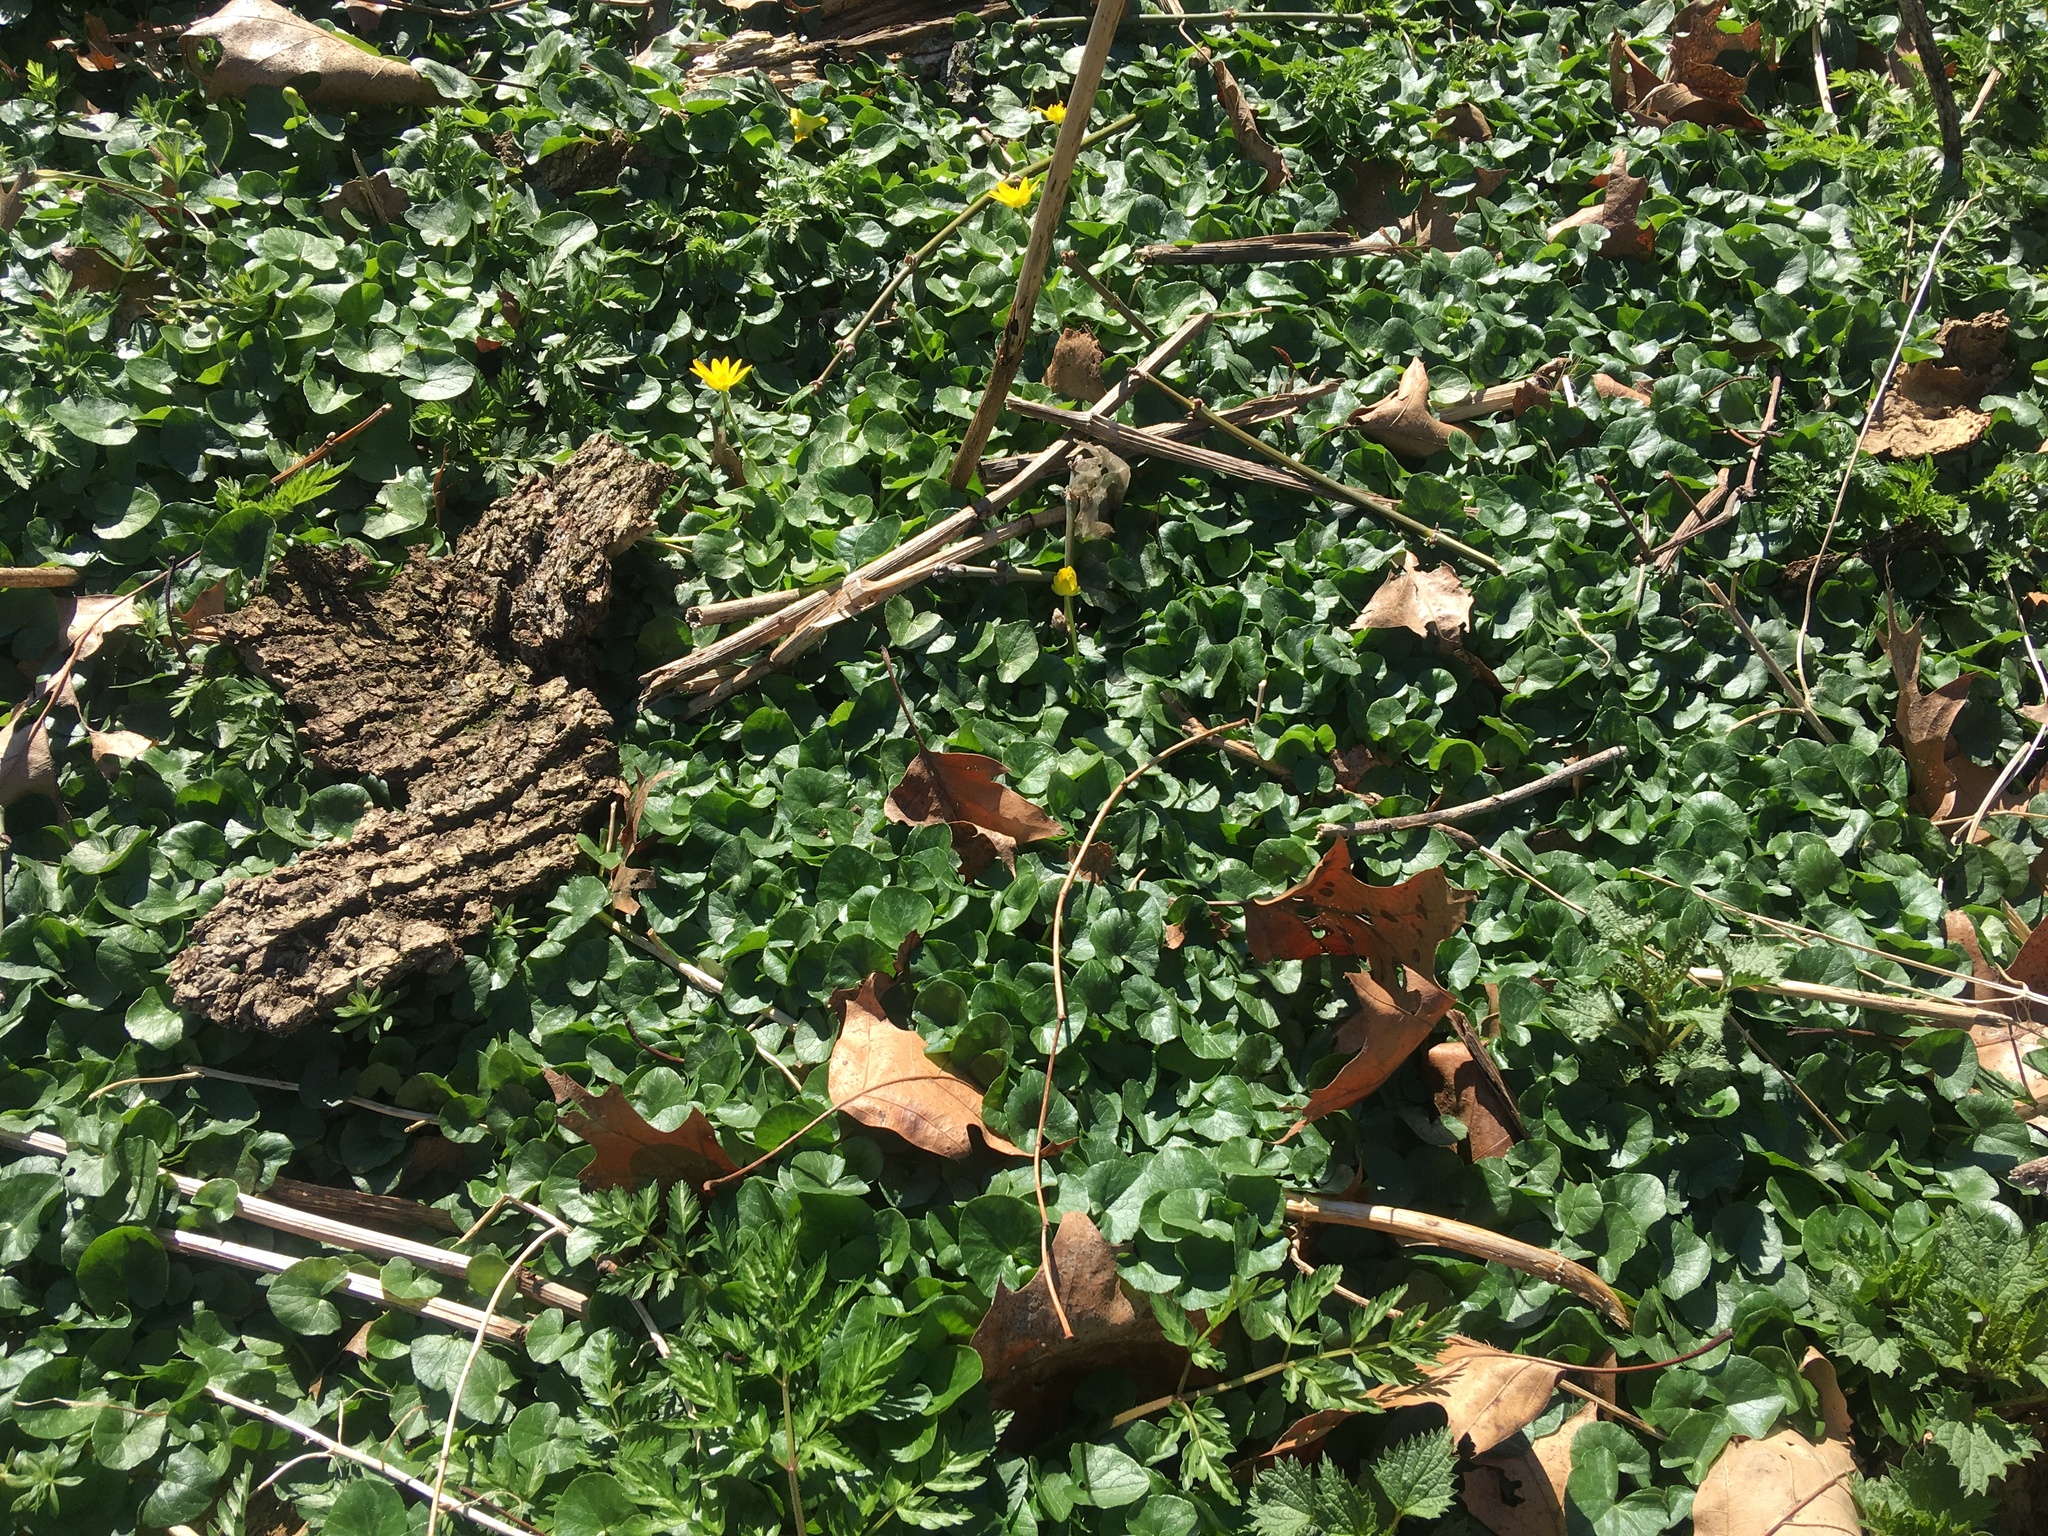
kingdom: Plantae
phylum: Tracheophyta
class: Magnoliopsida
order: Ranunculales
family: Ranunculaceae
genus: Ficaria
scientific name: Ficaria verna
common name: Lesser celandine
